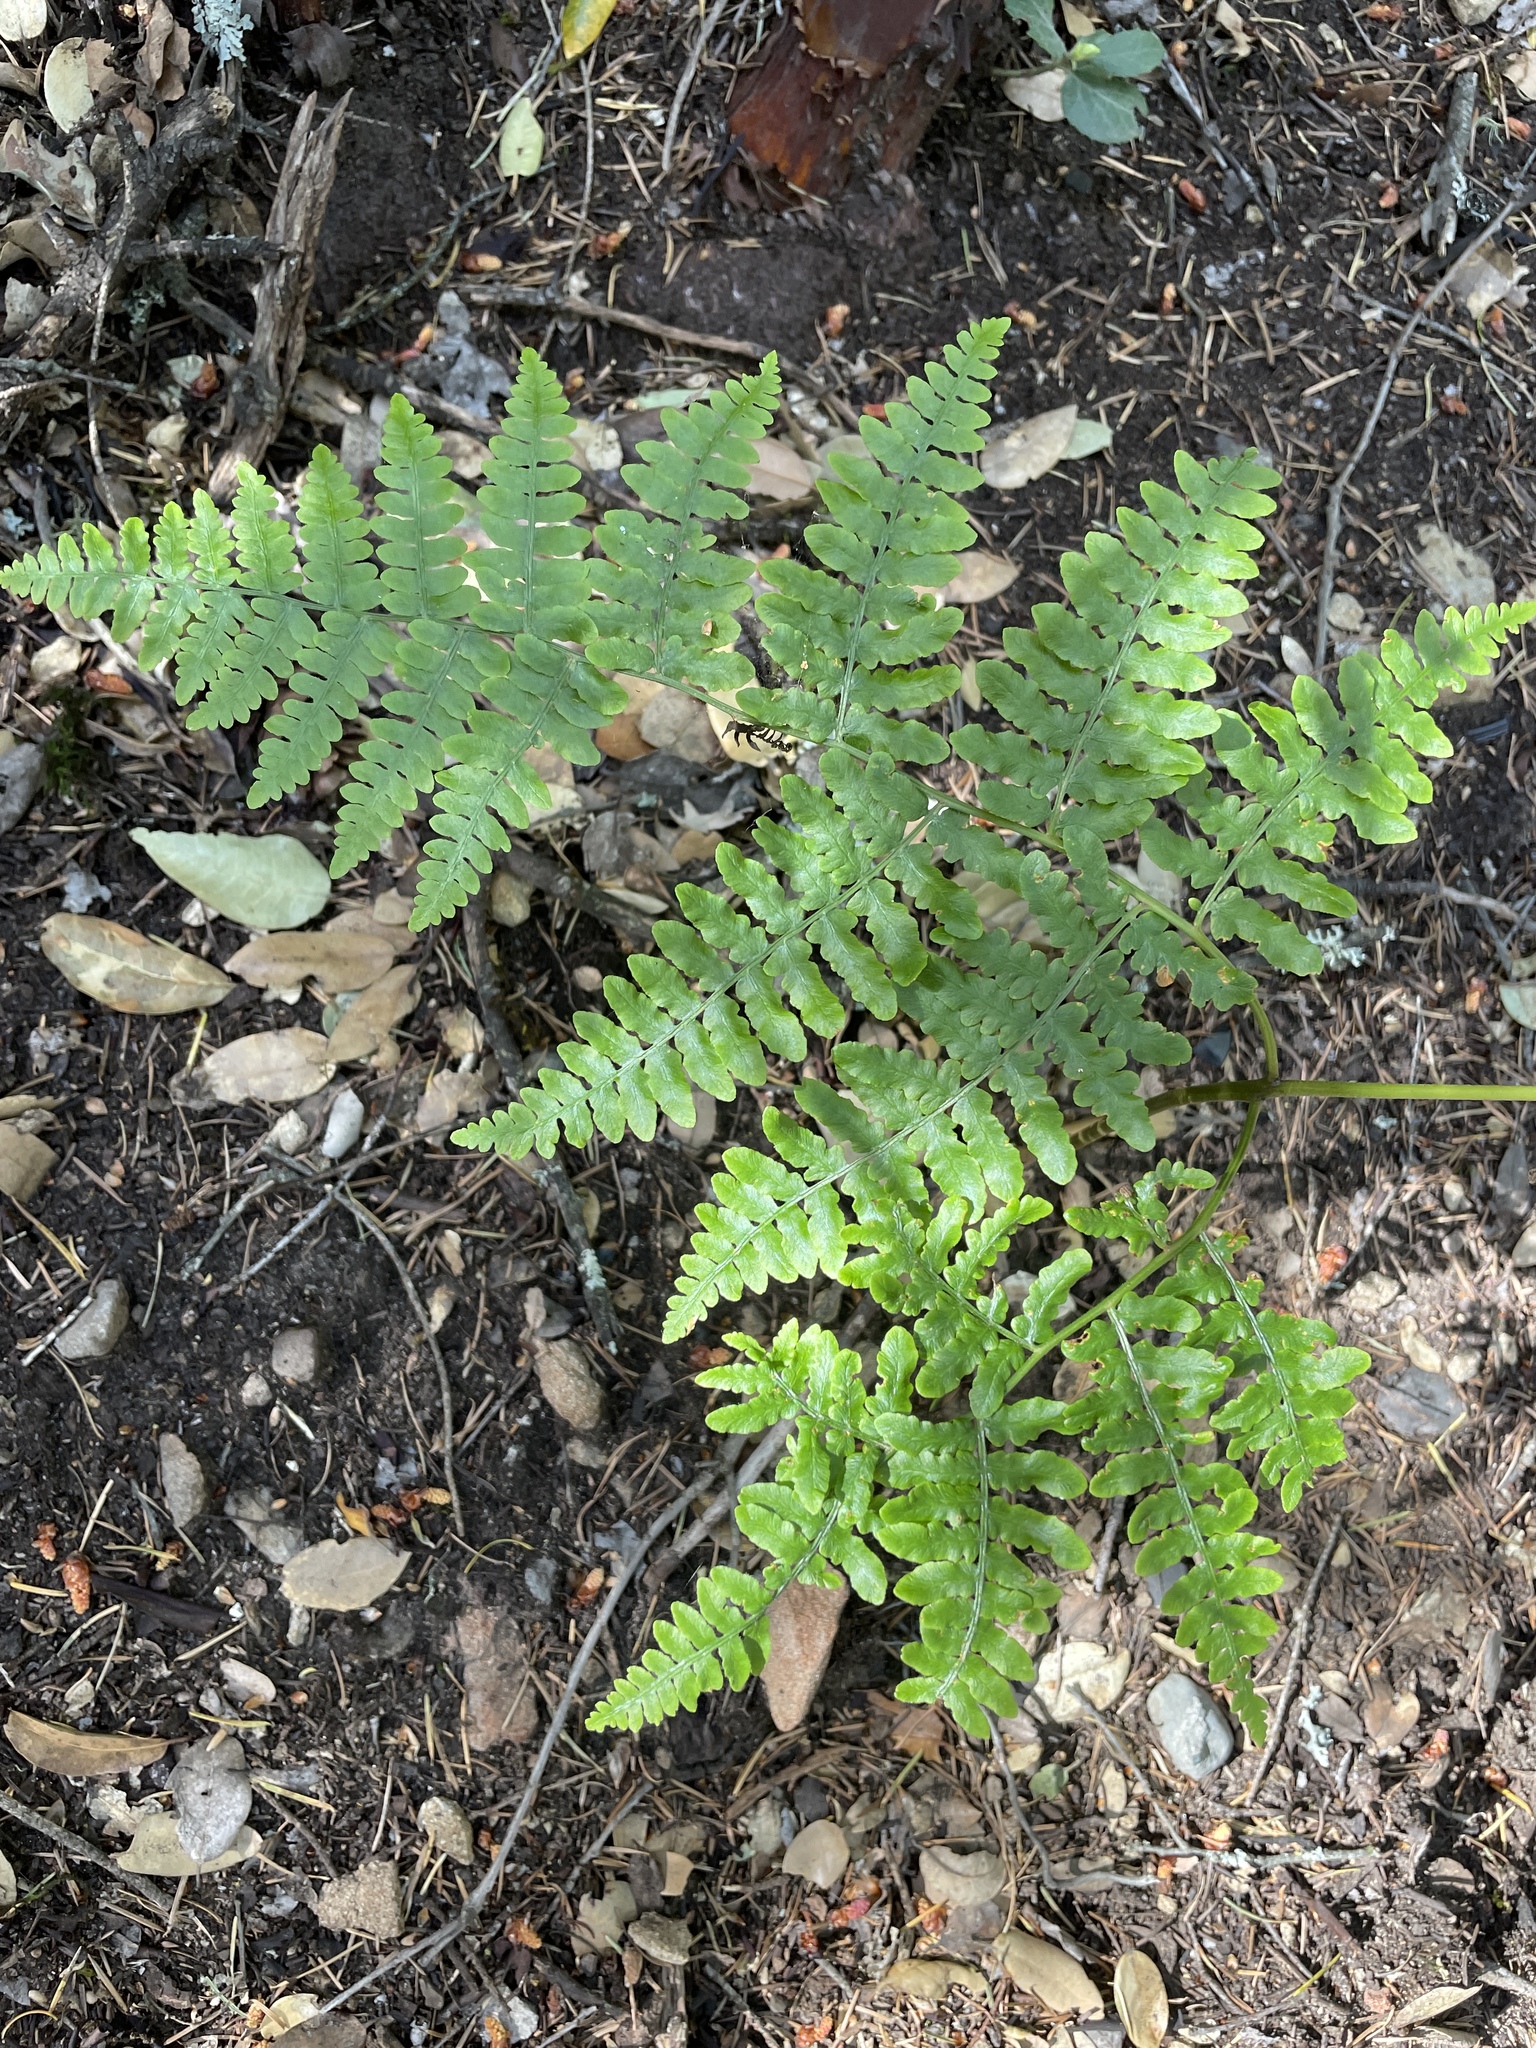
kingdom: Plantae
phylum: Tracheophyta
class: Polypodiopsida
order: Polypodiales
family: Dennstaedtiaceae
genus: Pteridium
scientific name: Pteridium aquilinum
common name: Bracken
